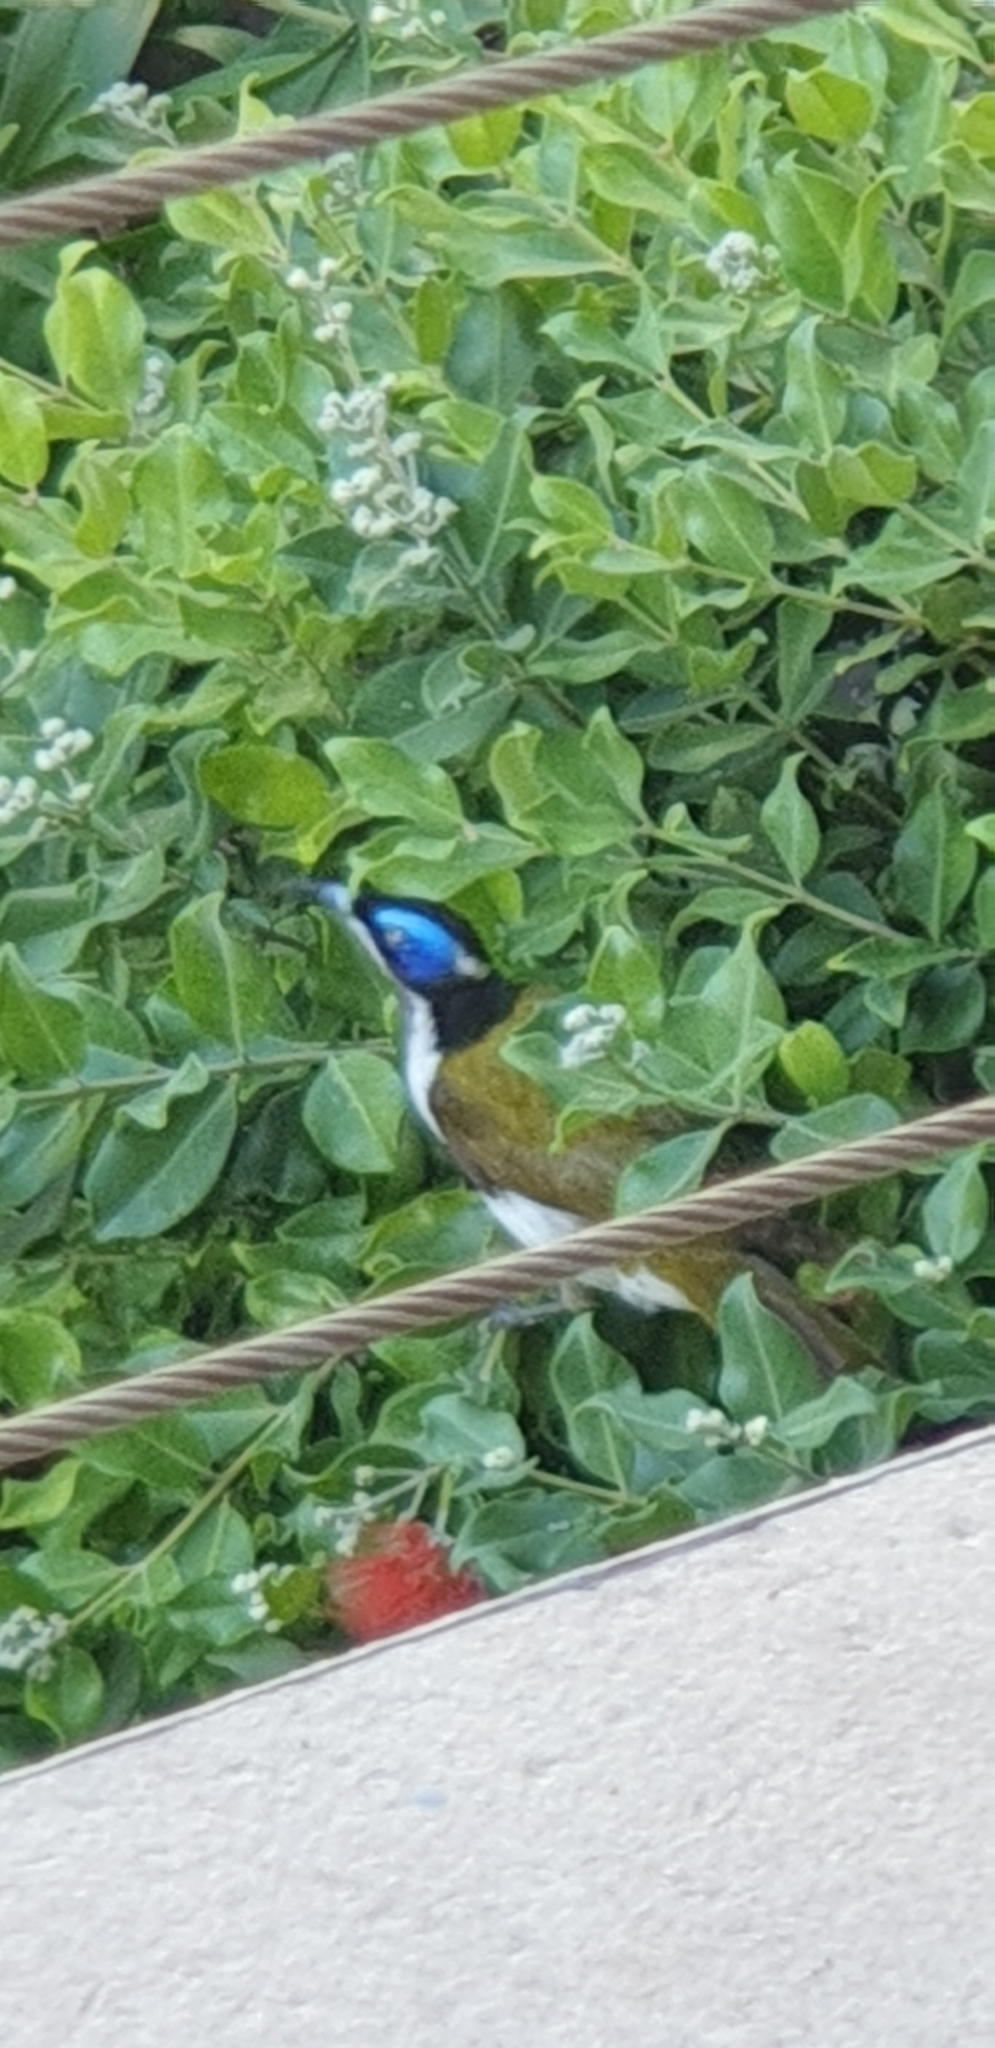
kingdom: Animalia
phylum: Chordata
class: Aves
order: Passeriformes
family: Meliphagidae
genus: Entomyzon
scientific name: Entomyzon cyanotis
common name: Blue-faced honeyeater
